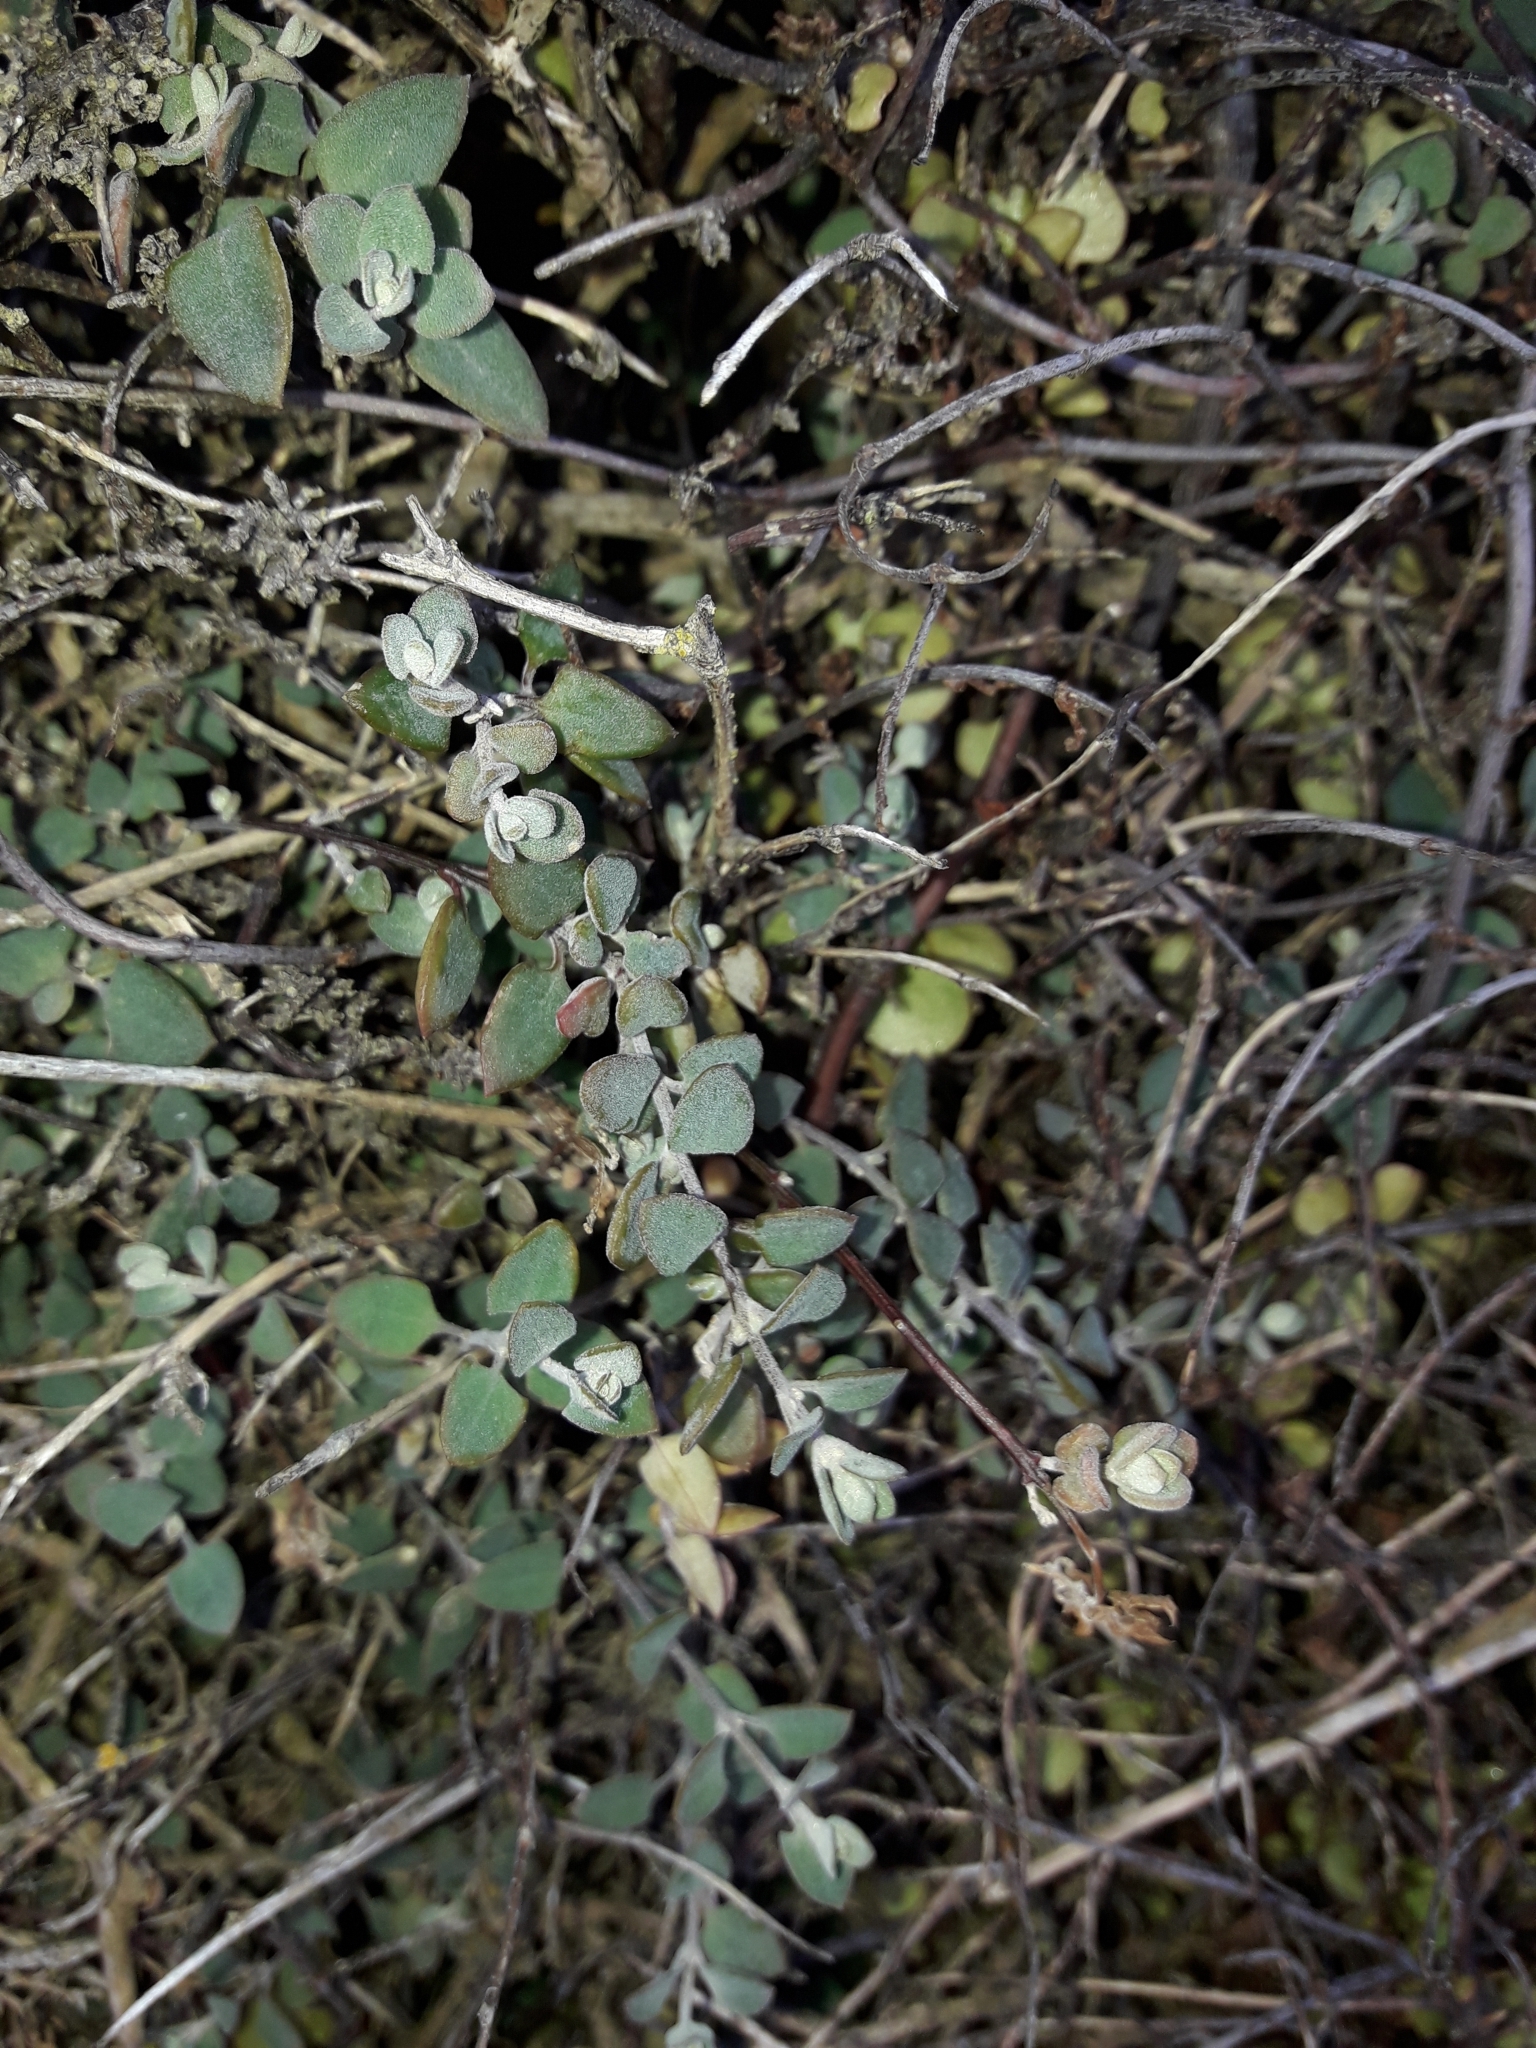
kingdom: Plantae
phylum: Tracheophyta
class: Magnoliopsida
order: Caryophyllales
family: Amaranthaceae
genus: Chenopodium
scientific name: Chenopodium triandrum
